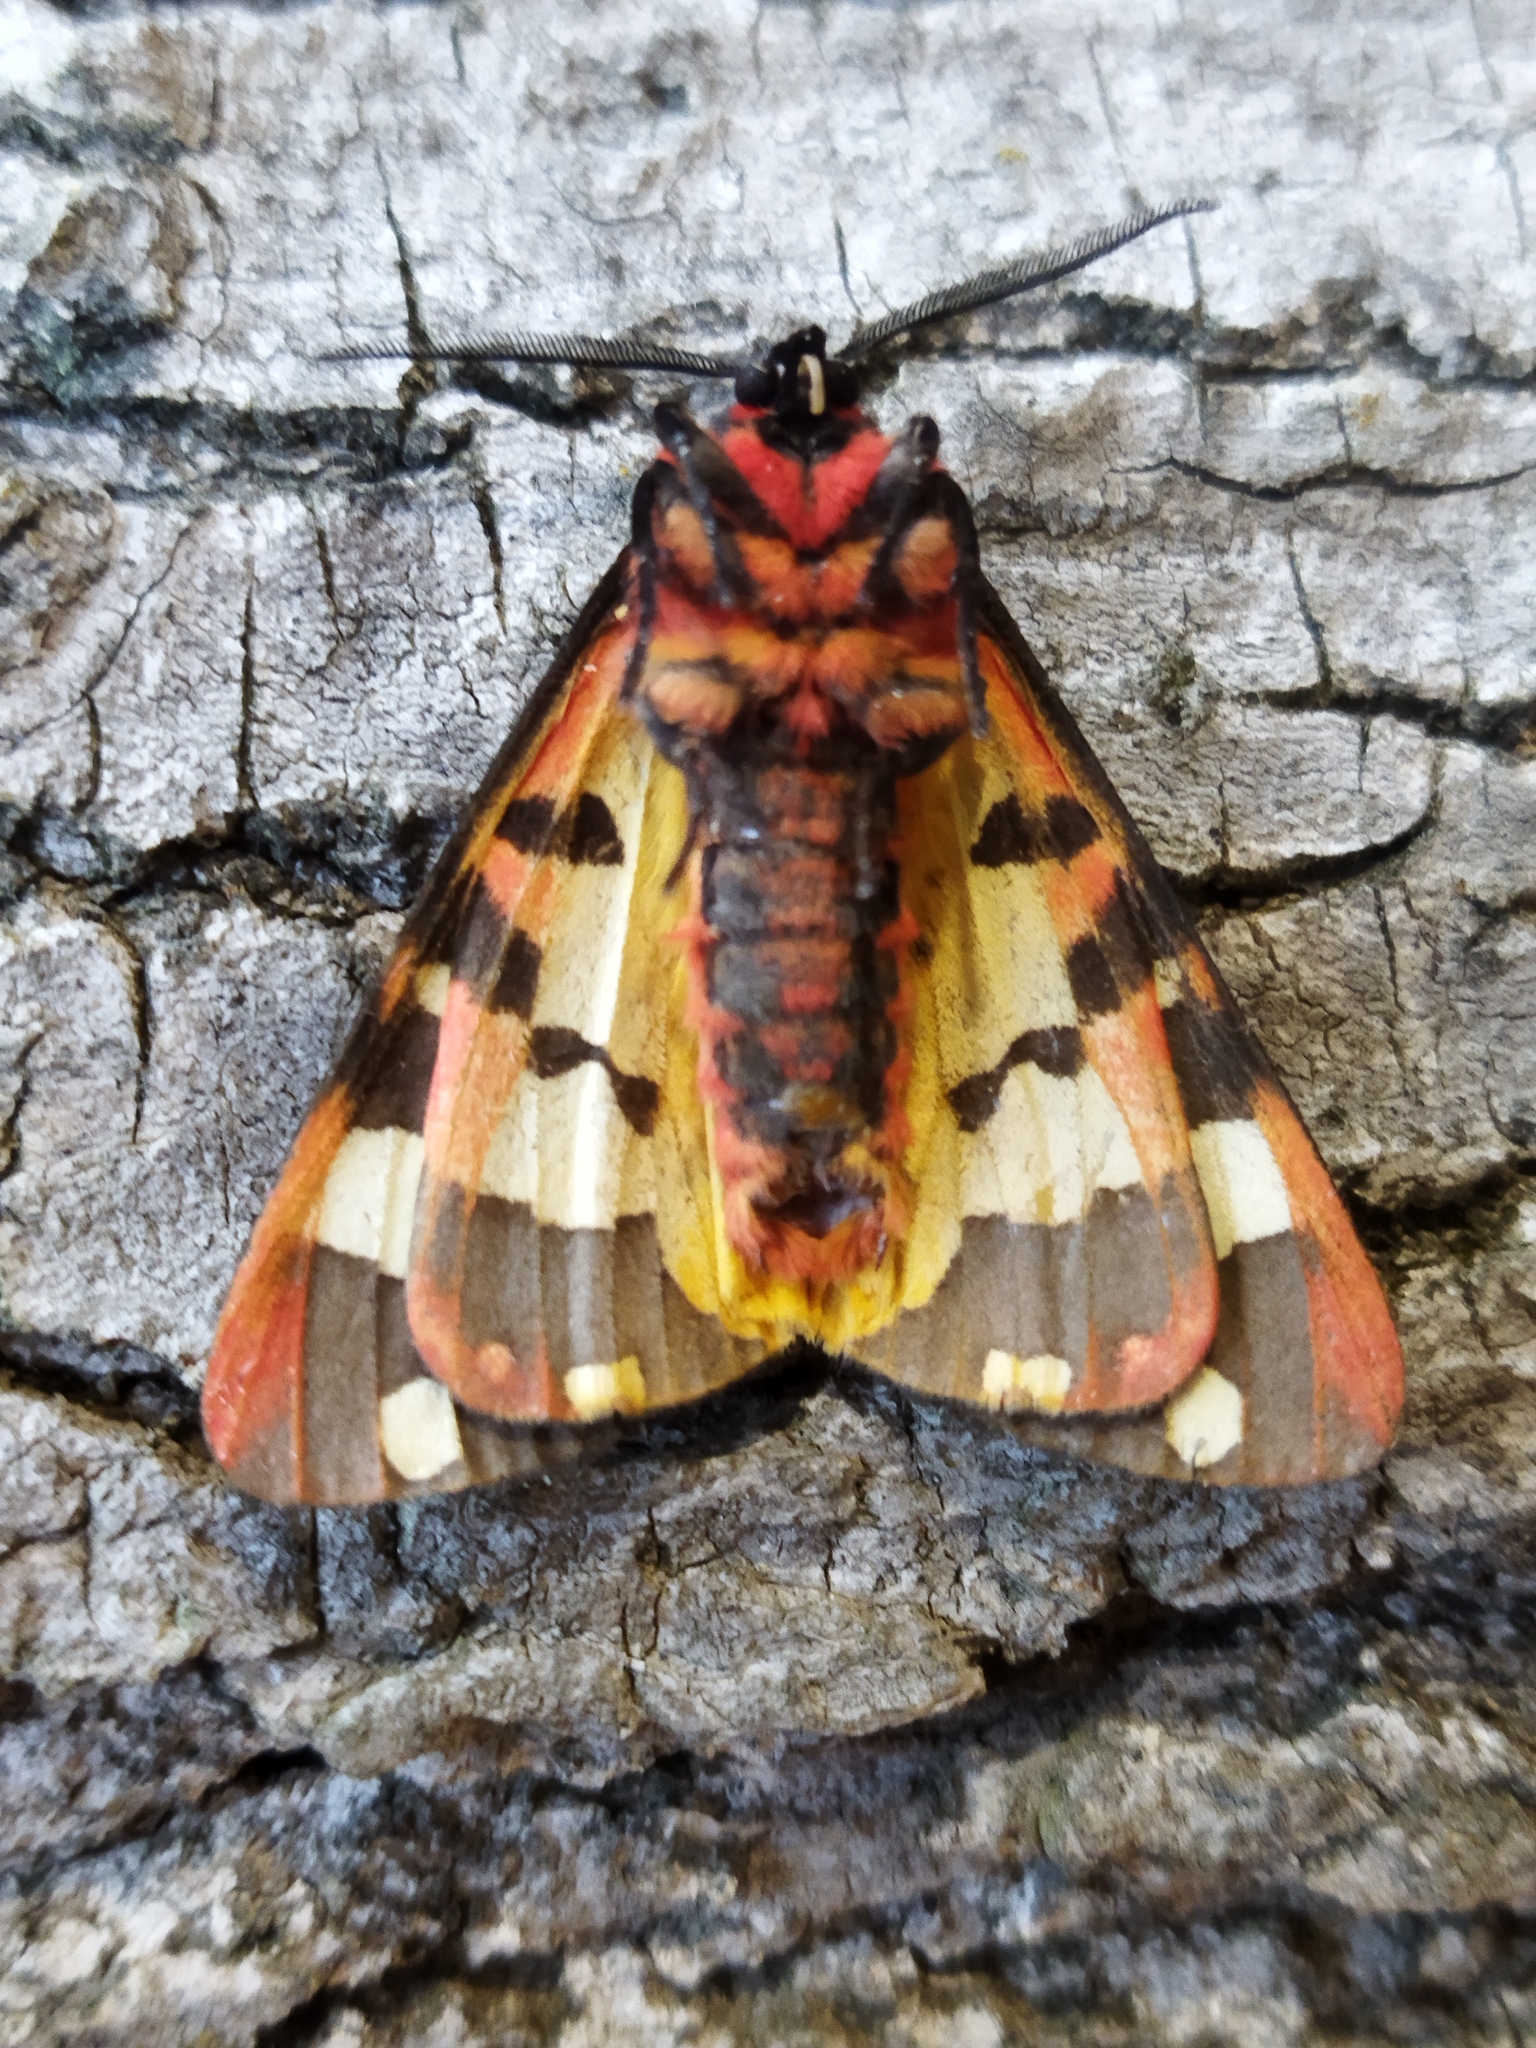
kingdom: Animalia
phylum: Arthropoda
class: Insecta
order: Lepidoptera
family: Erebidae
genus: Epicallia
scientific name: Epicallia villica
